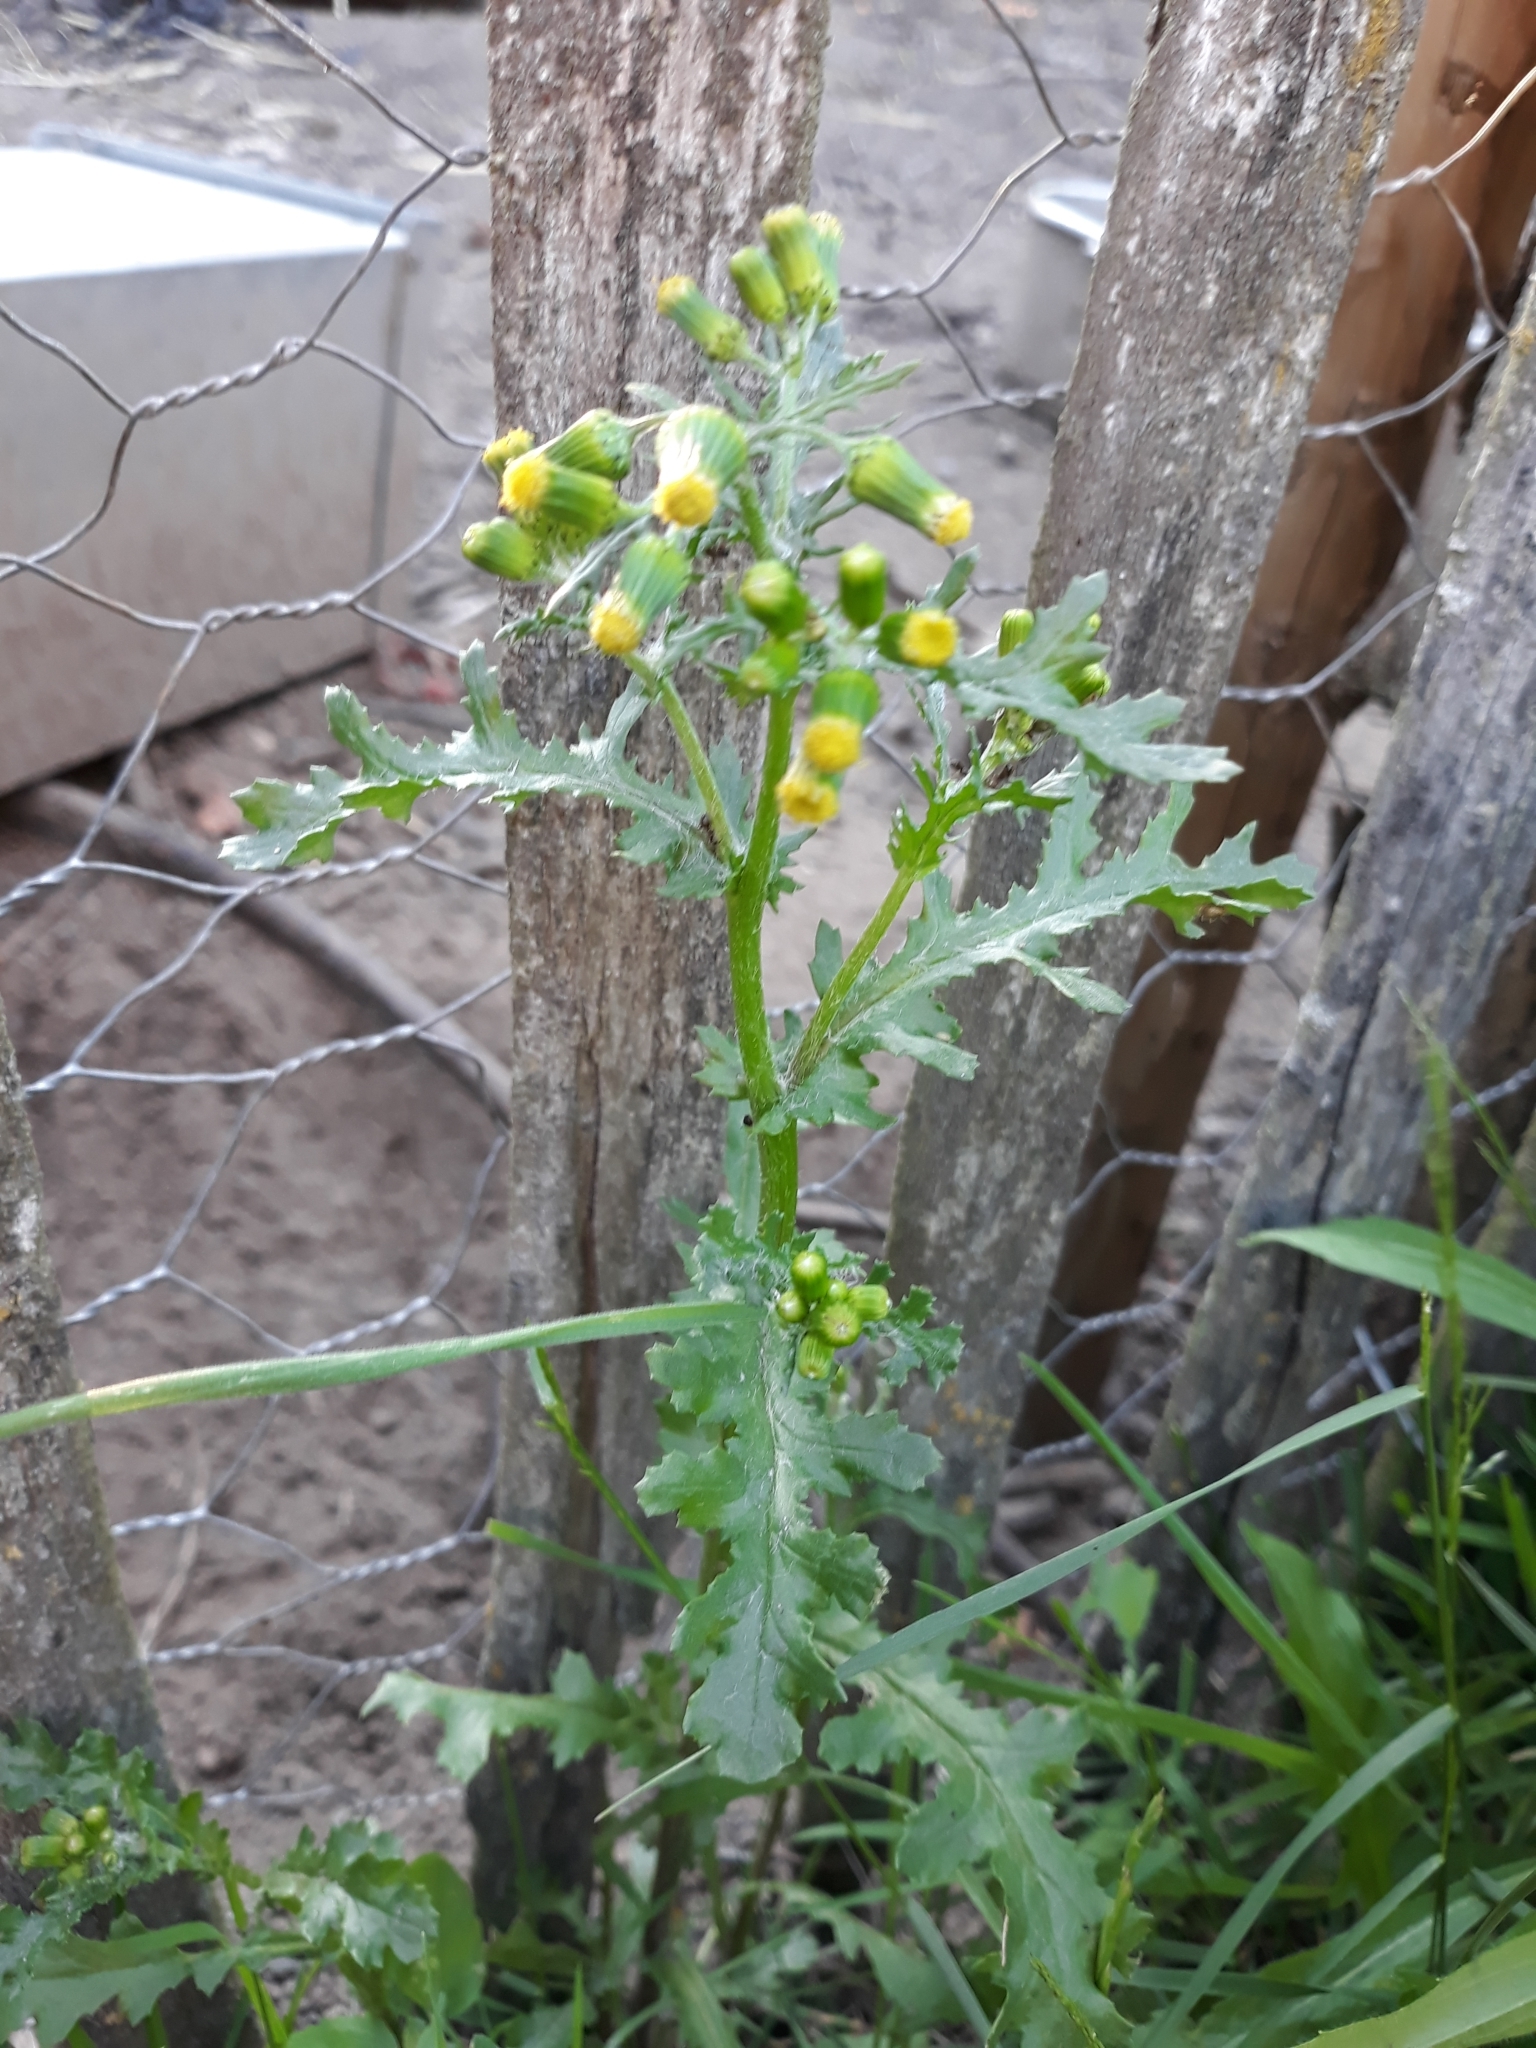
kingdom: Plantae
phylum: Tracheophyta
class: Magnoliopsida
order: Asterales
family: Asteraceae
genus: Senecio
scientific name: Senecio vulgaris
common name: Old-man-in-the-spring
